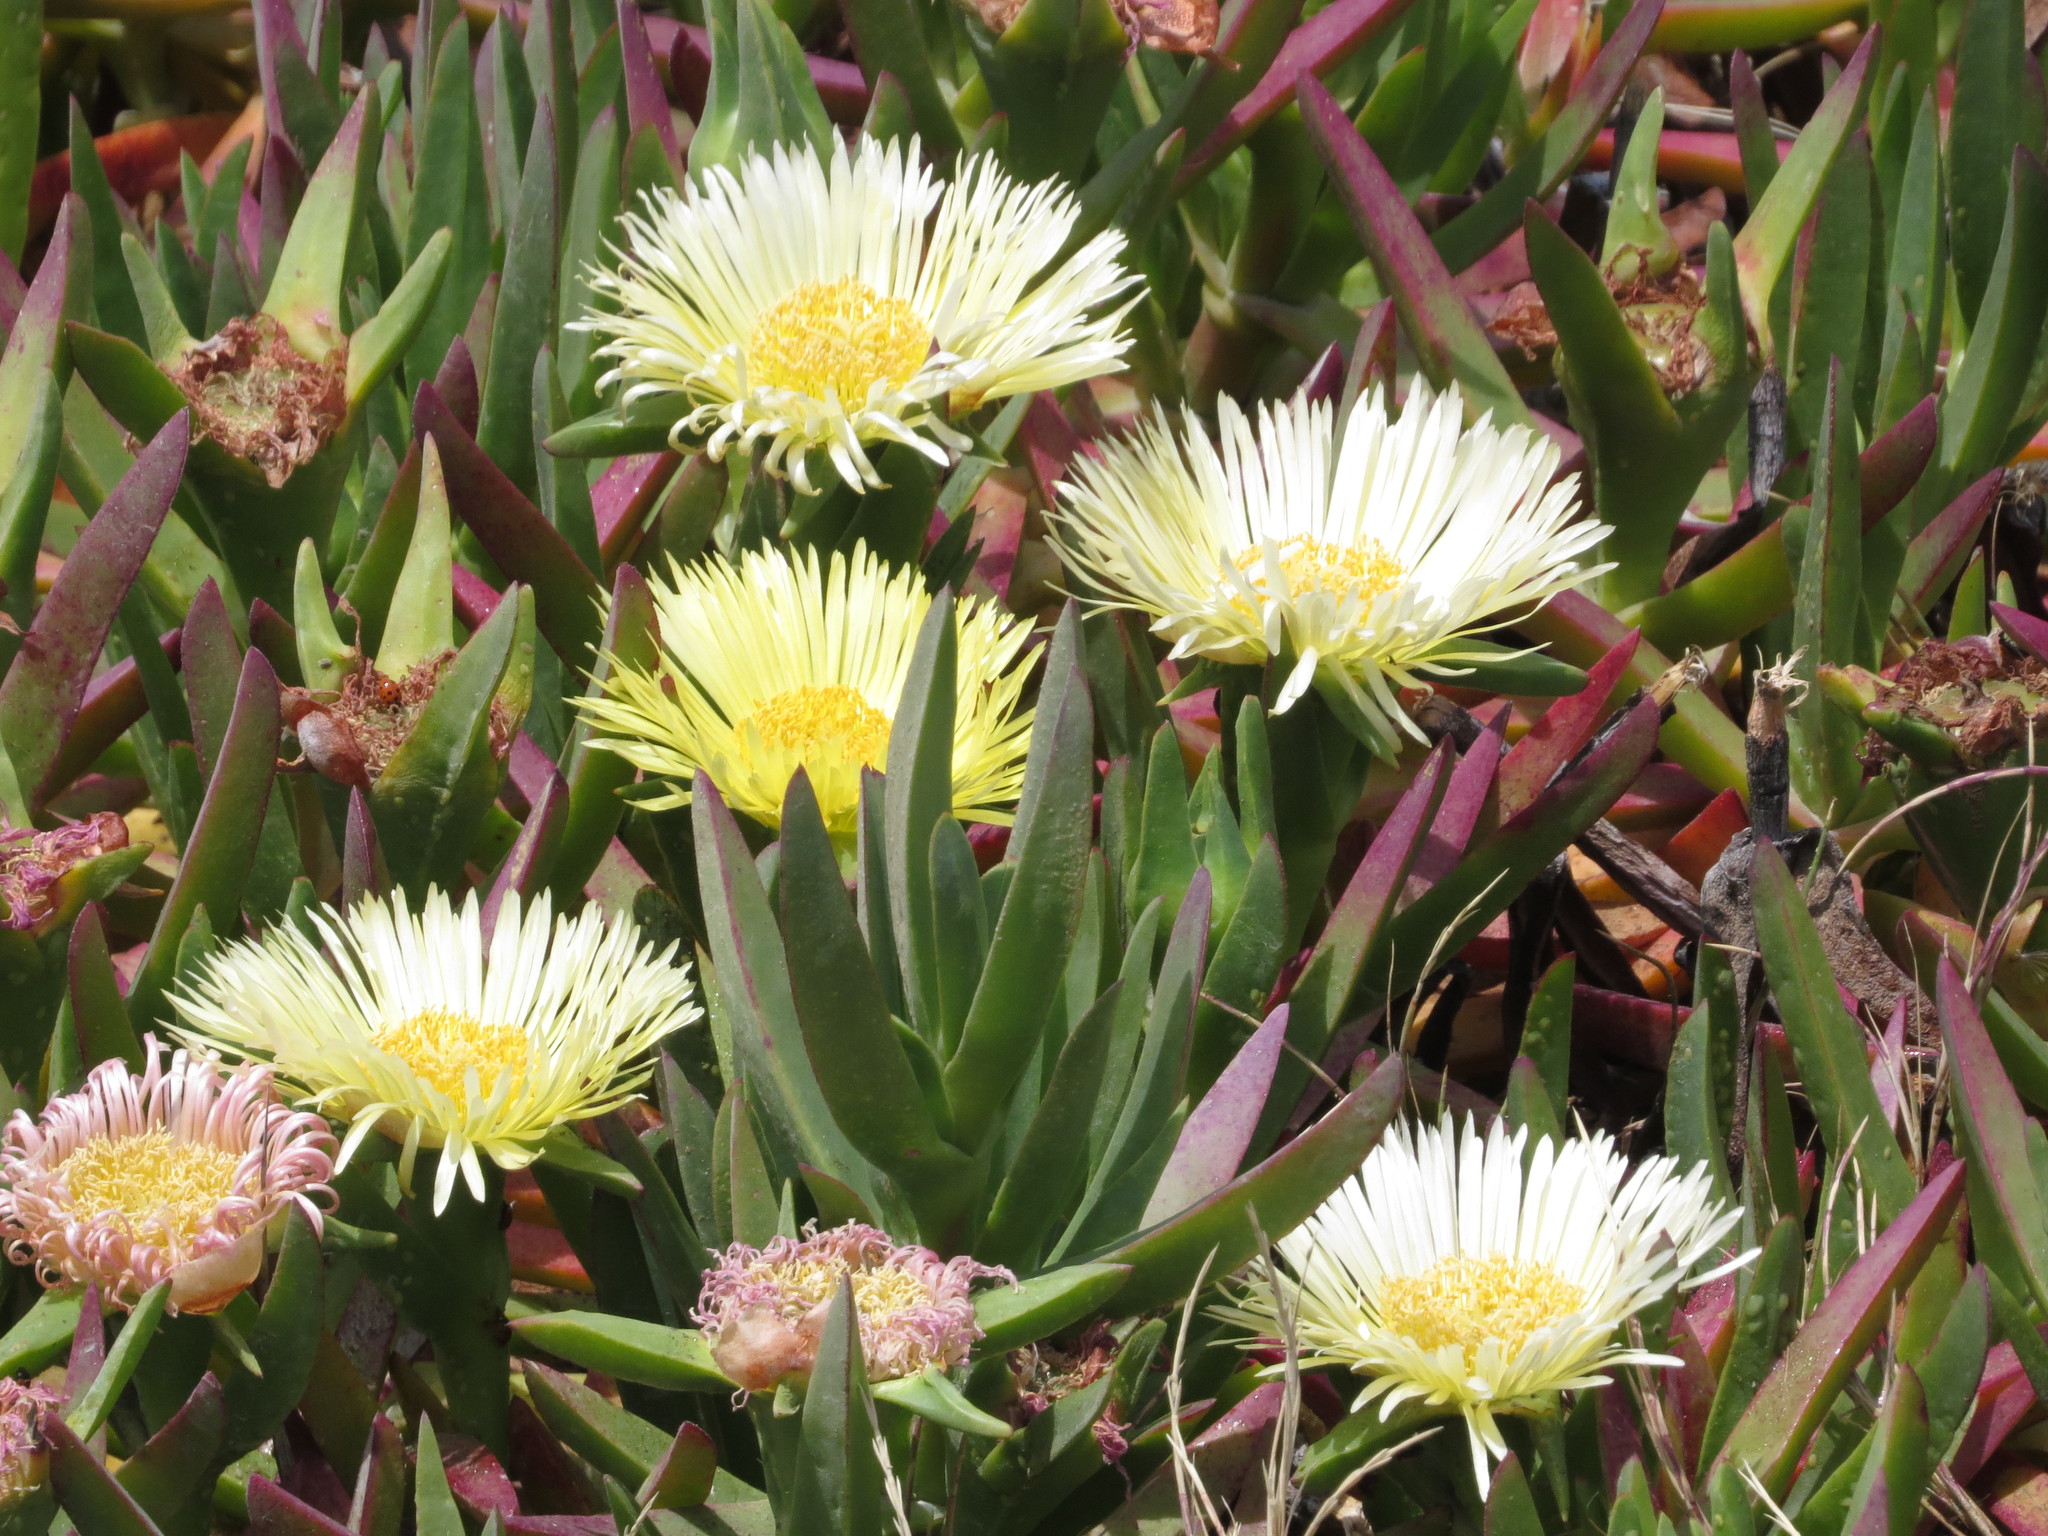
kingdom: Plantae
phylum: Tracheophyta
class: Magnoliopsida
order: Caryophyllales
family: Aizoaceae
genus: Carpobrotus
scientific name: Carpobrotus edulis
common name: Hottentot-fig
